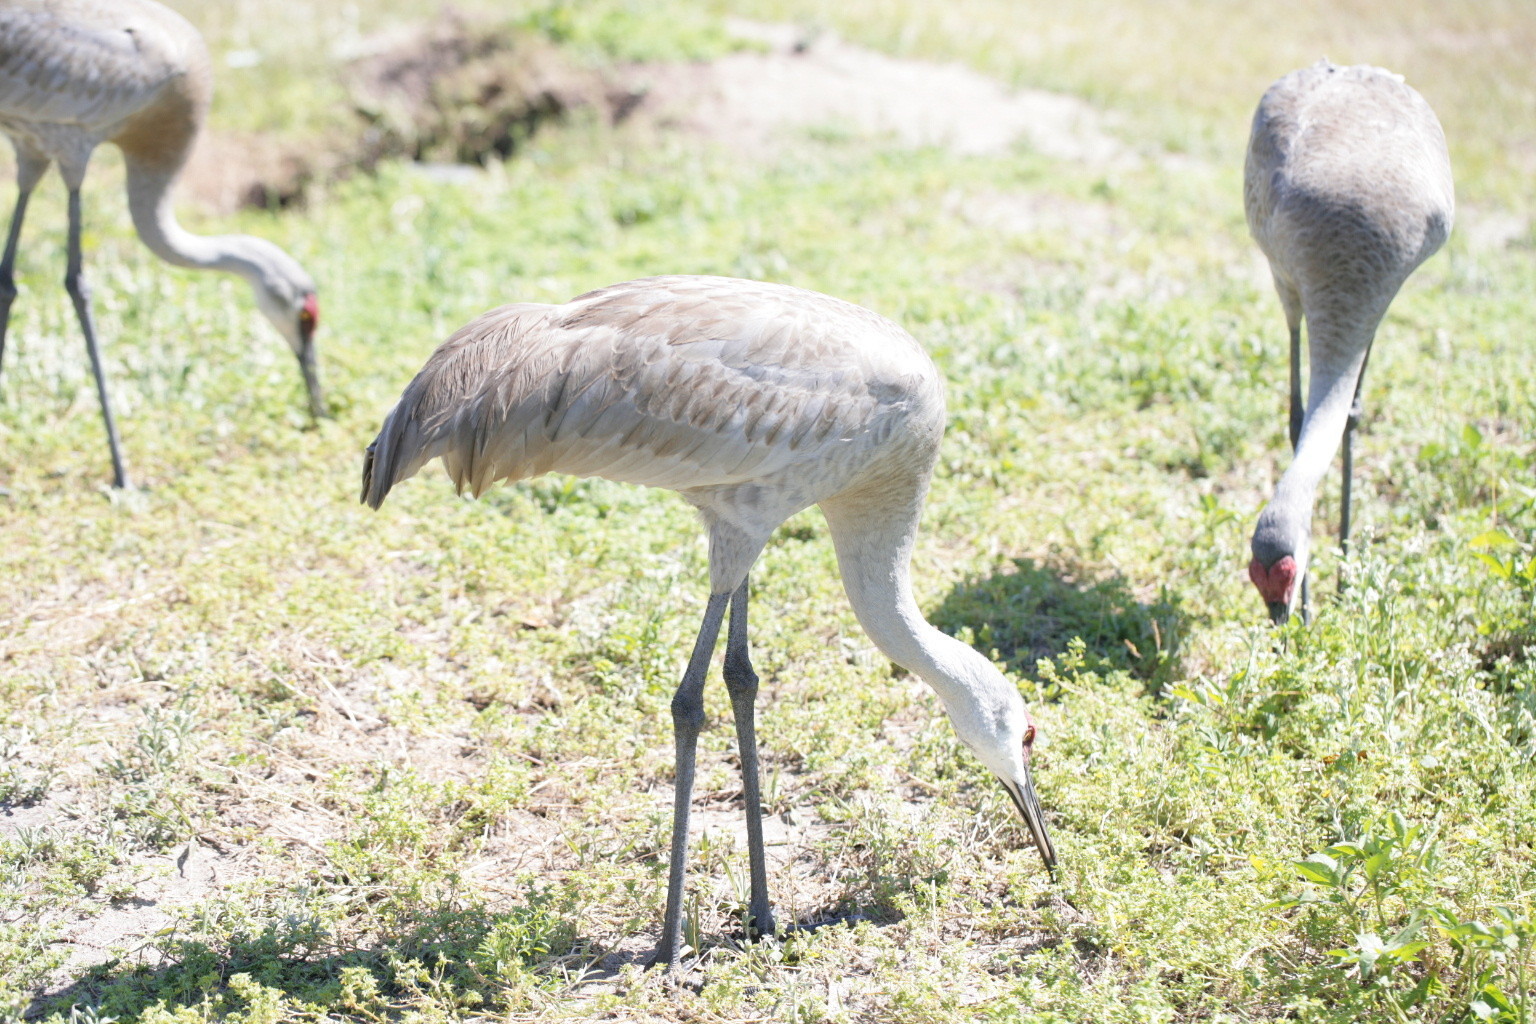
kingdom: Animalia
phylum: Chordata
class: Aves
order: Gruiformes
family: Gruidae
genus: Grus
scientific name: Grus canadensis
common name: Sandhill crane
